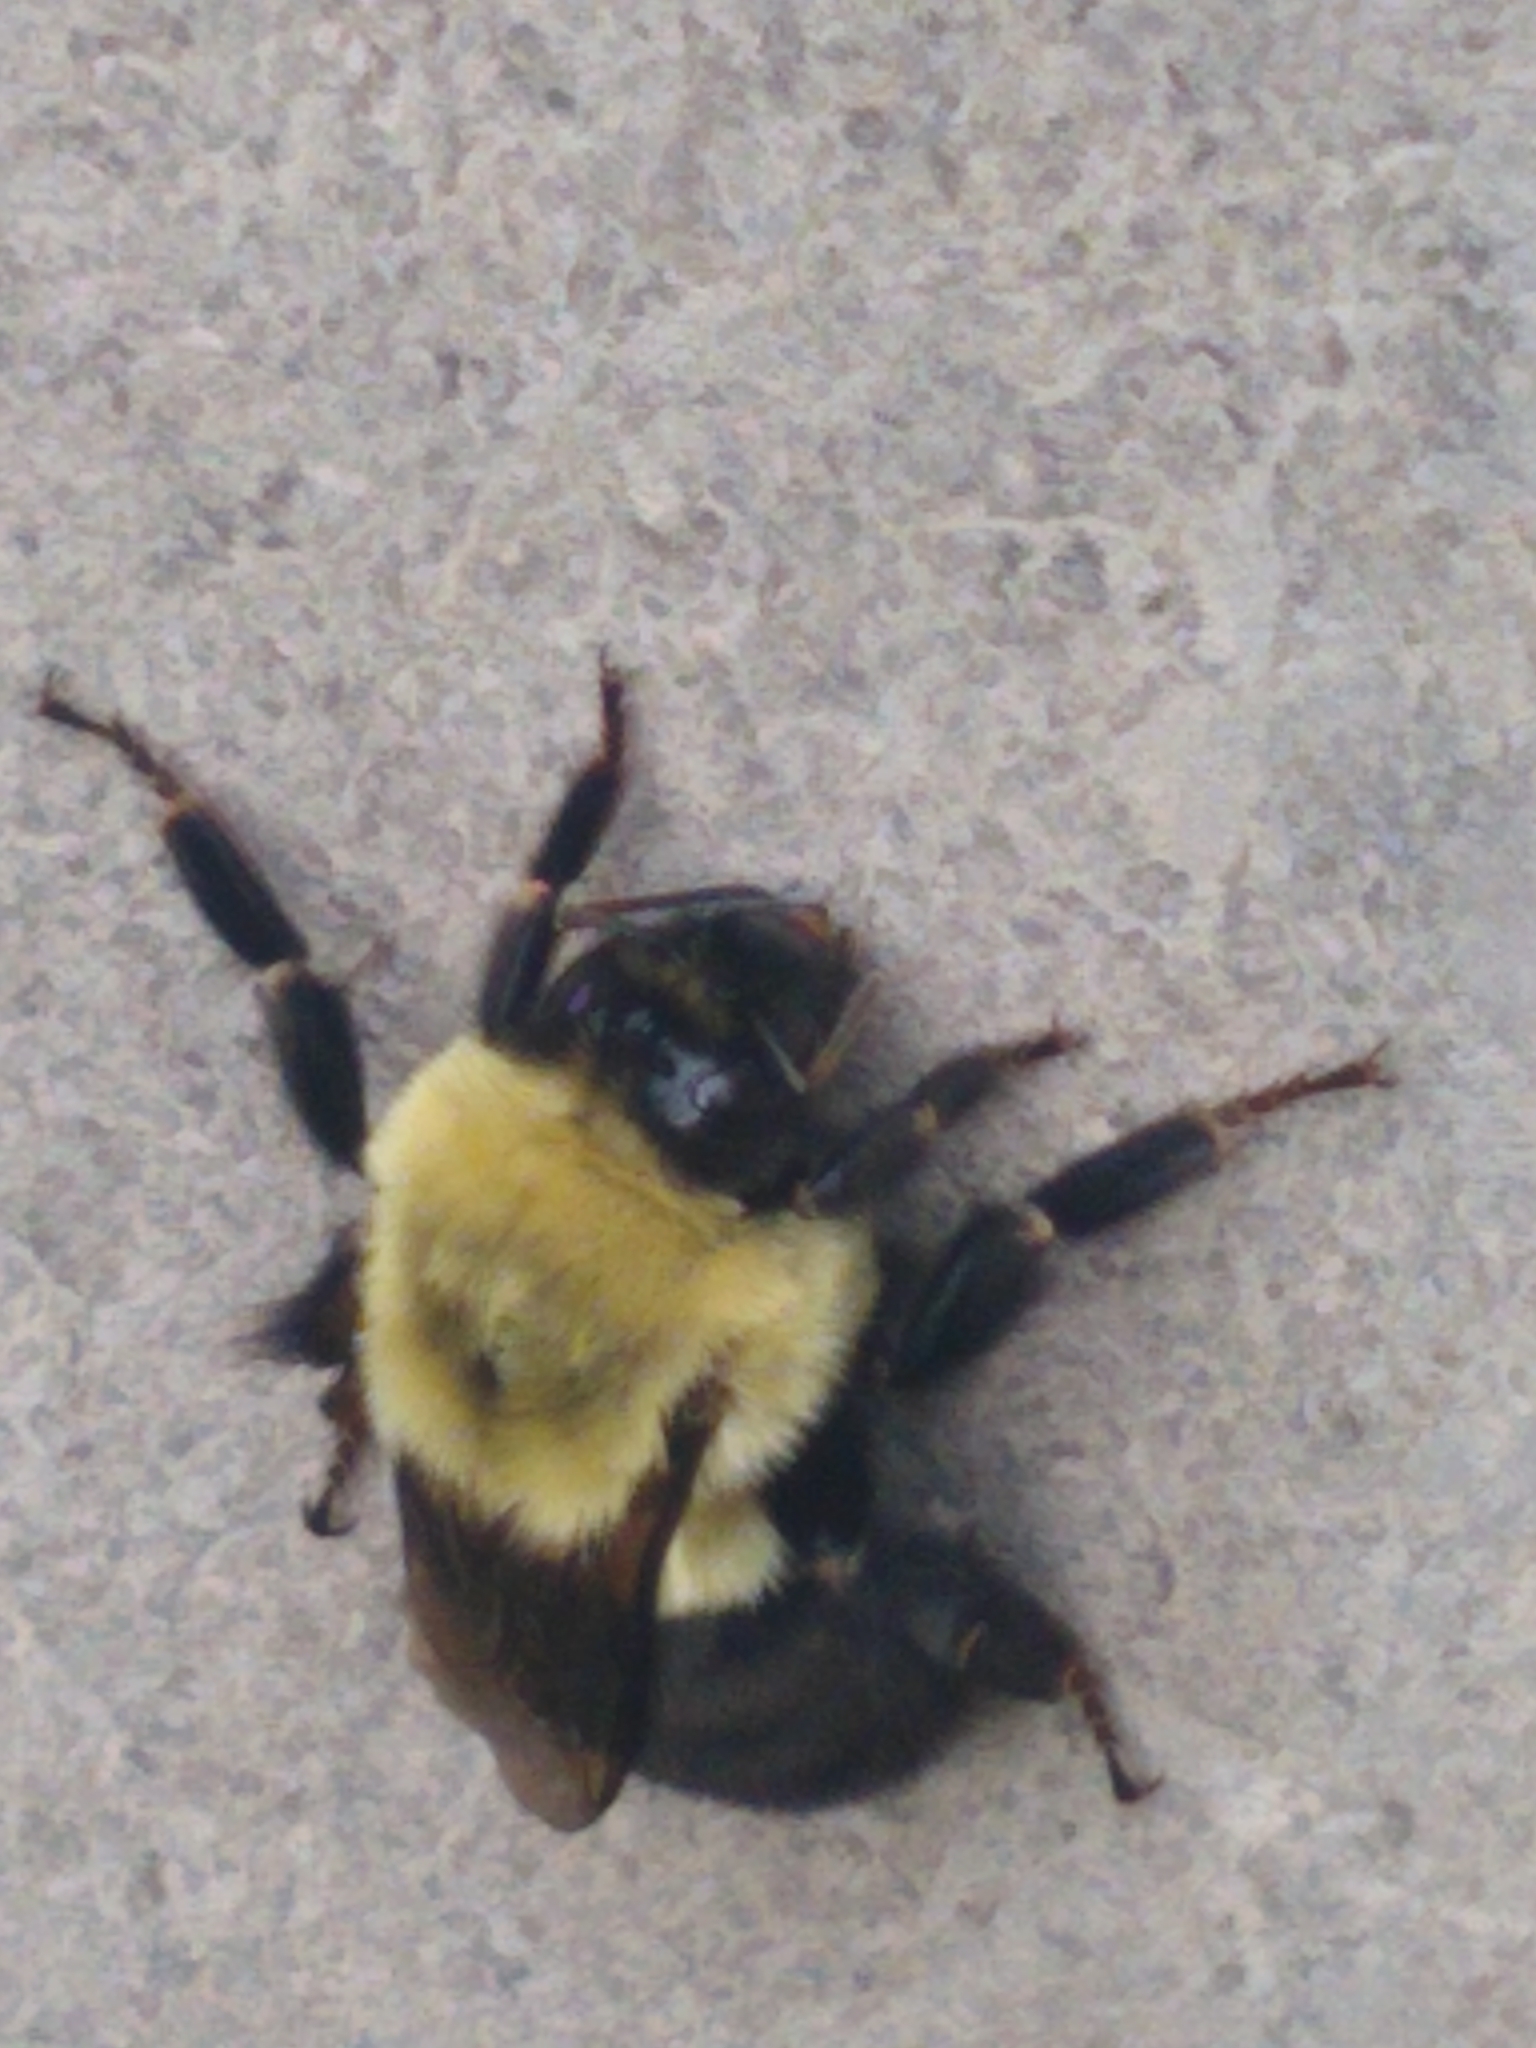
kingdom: Animalia
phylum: Arthropoda
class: Insecta
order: Hymenoptera
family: Apidae
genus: Bombus
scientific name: Bombus impatiens
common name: Common eastern bumble bee
